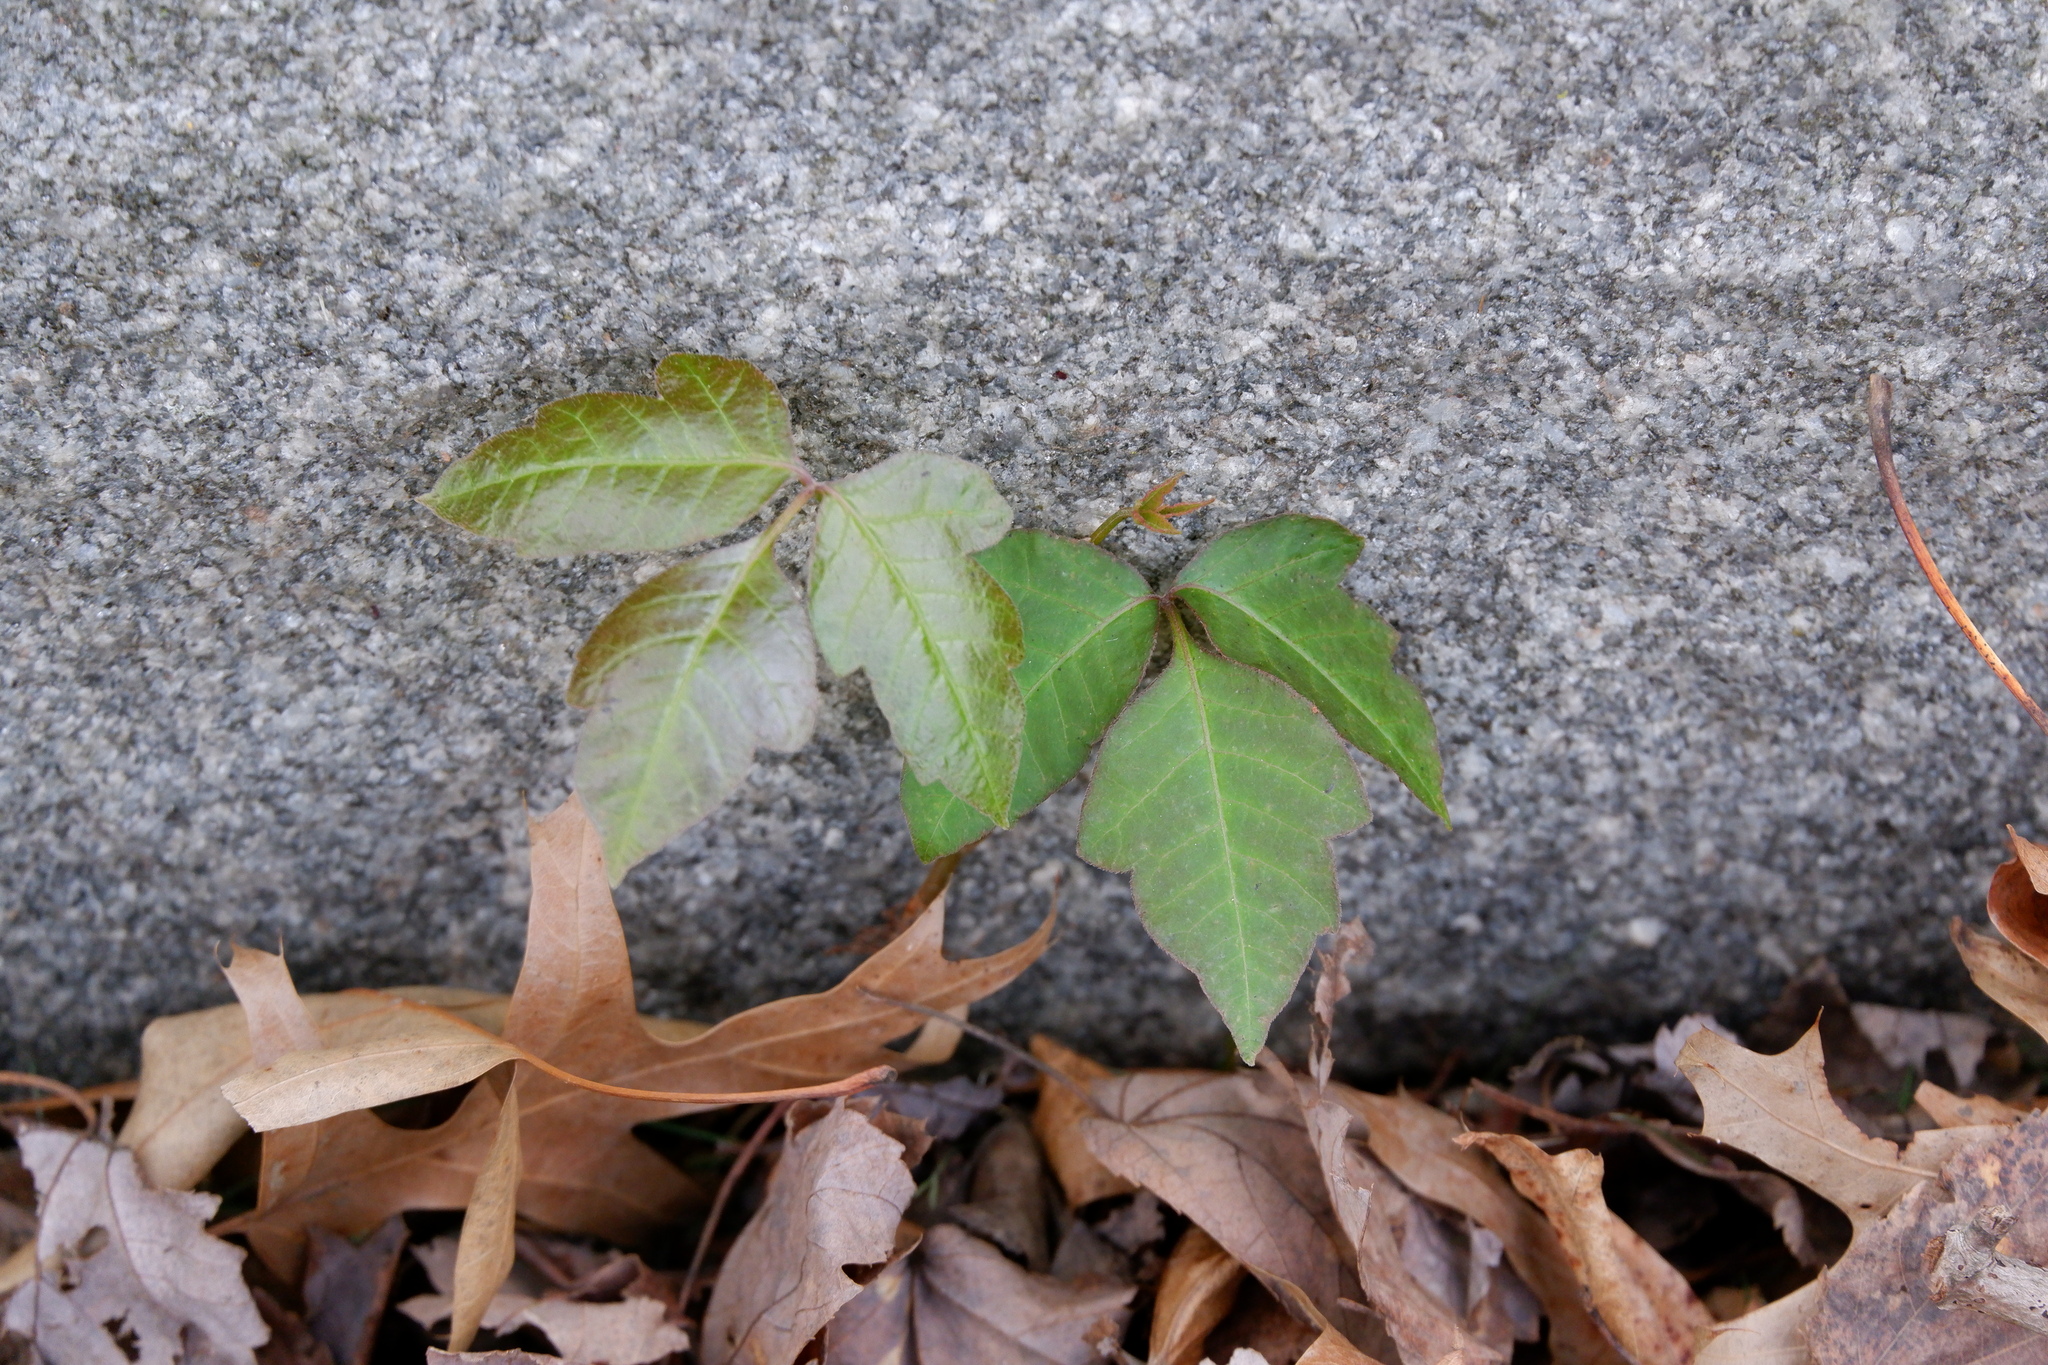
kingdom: Plantae
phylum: Tracheophyta
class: Magnoliopsida
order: Sapindales
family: Anacardiaceae
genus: Toxicodendron
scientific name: Toxicodendron radicans
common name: Poison ivy
